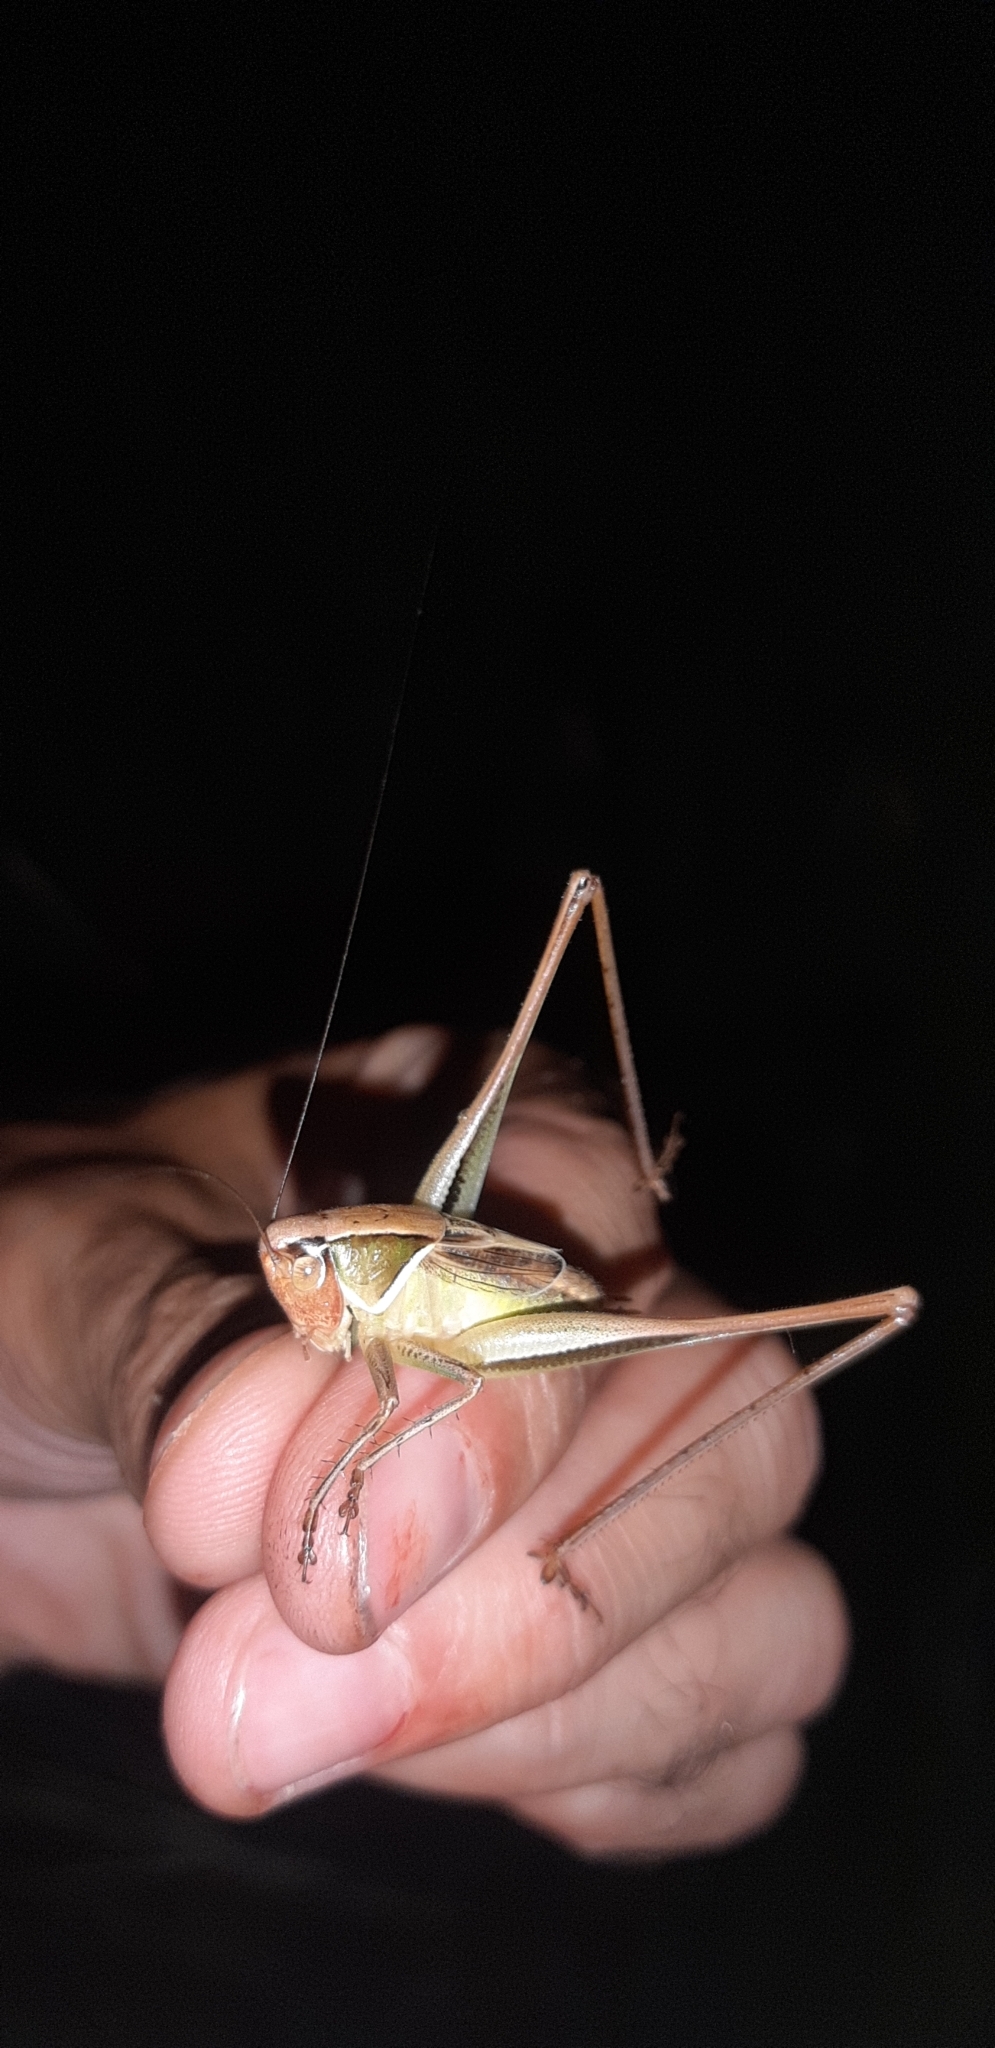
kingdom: Animalia
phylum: Arthropoda
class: Insecta
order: Orthoptera
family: Tettigoniidae
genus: Sepiana
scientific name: Sepiana sepium
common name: Sepia bush-cricket
